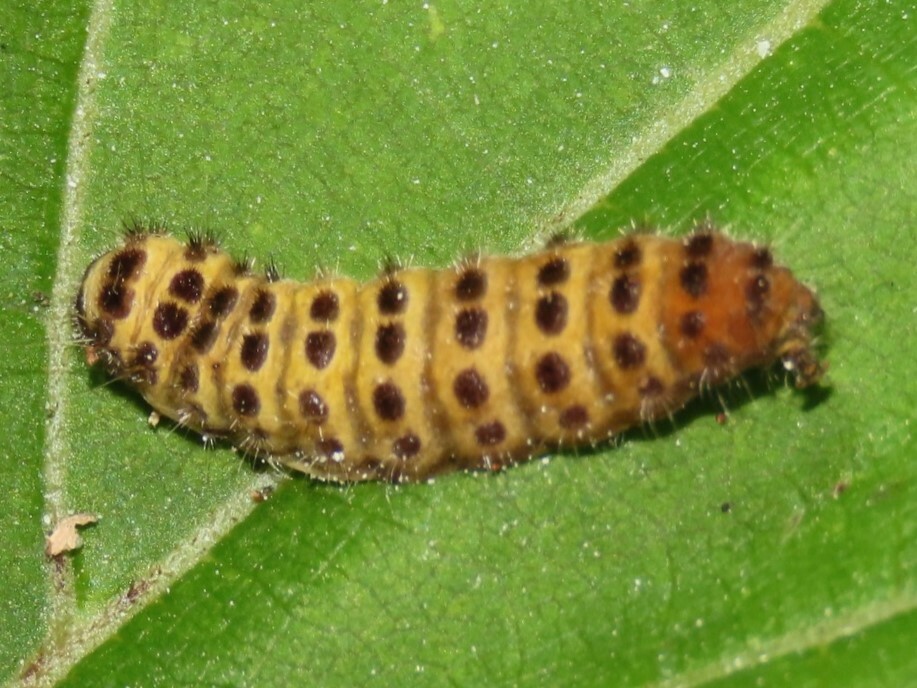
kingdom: Animalia
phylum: Arthropoda
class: Insecta
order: Lepidoptera
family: Zygaenidae
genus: Harrisina
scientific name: Harrisina americana
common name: Grapeleaf skeletonizer moth
